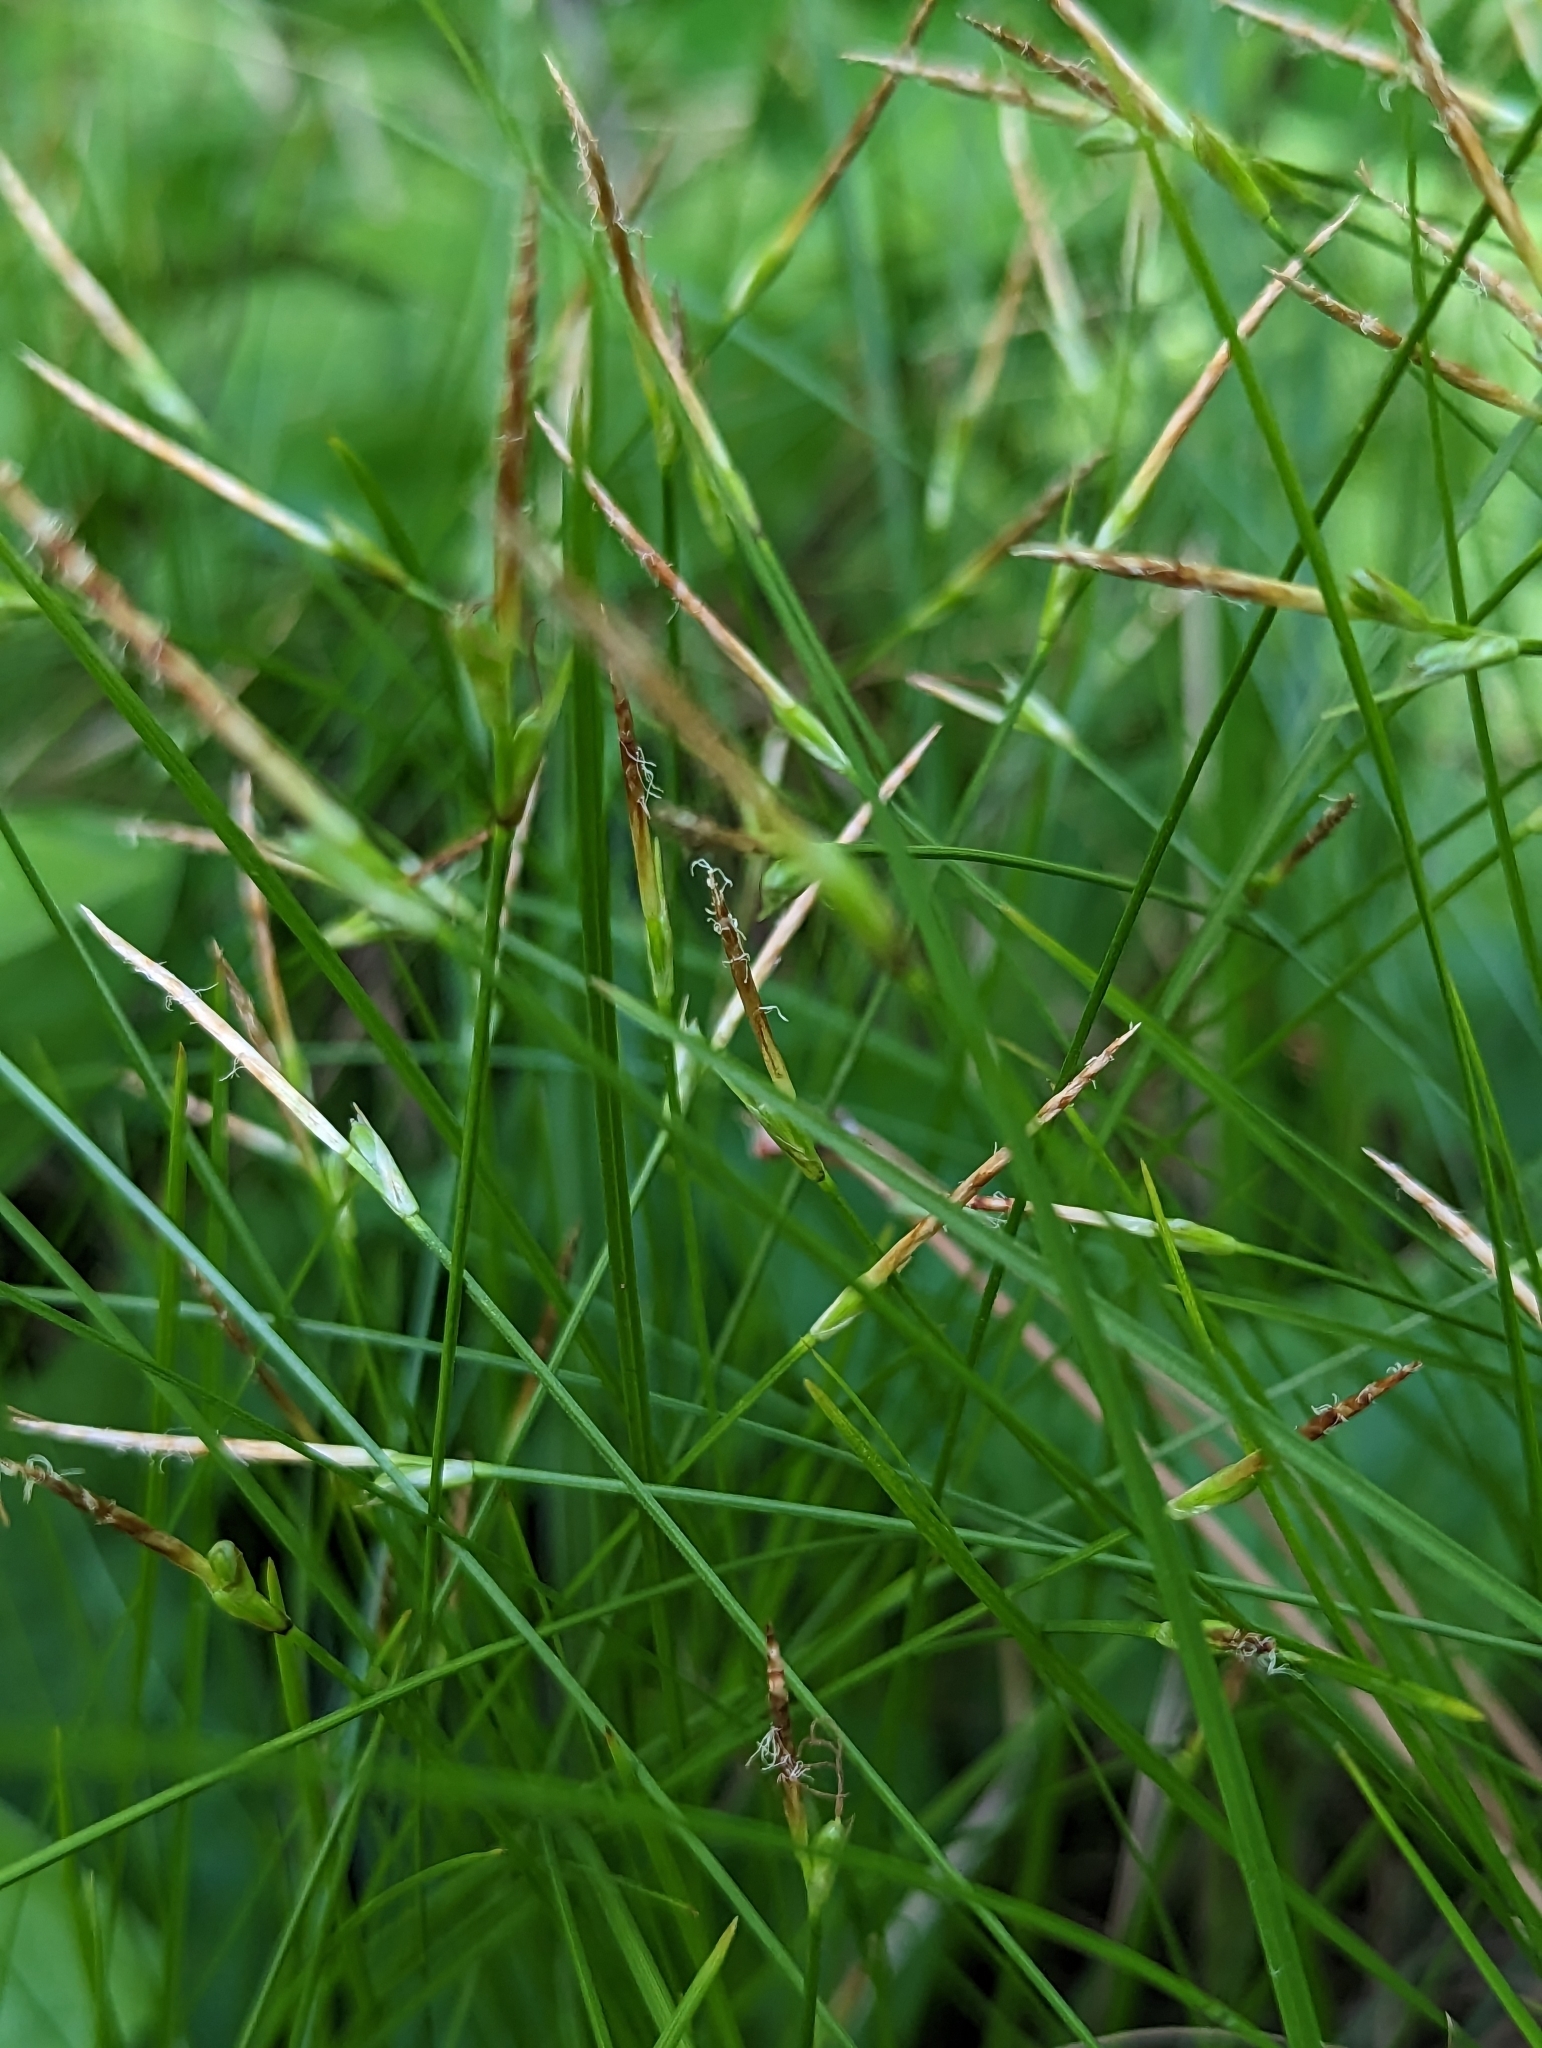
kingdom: Plantae
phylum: Tracheophyta
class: Liliopsida
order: Poales
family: Cyperaceae
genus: Carex
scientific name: Carex geyeri
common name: Elk sedge
